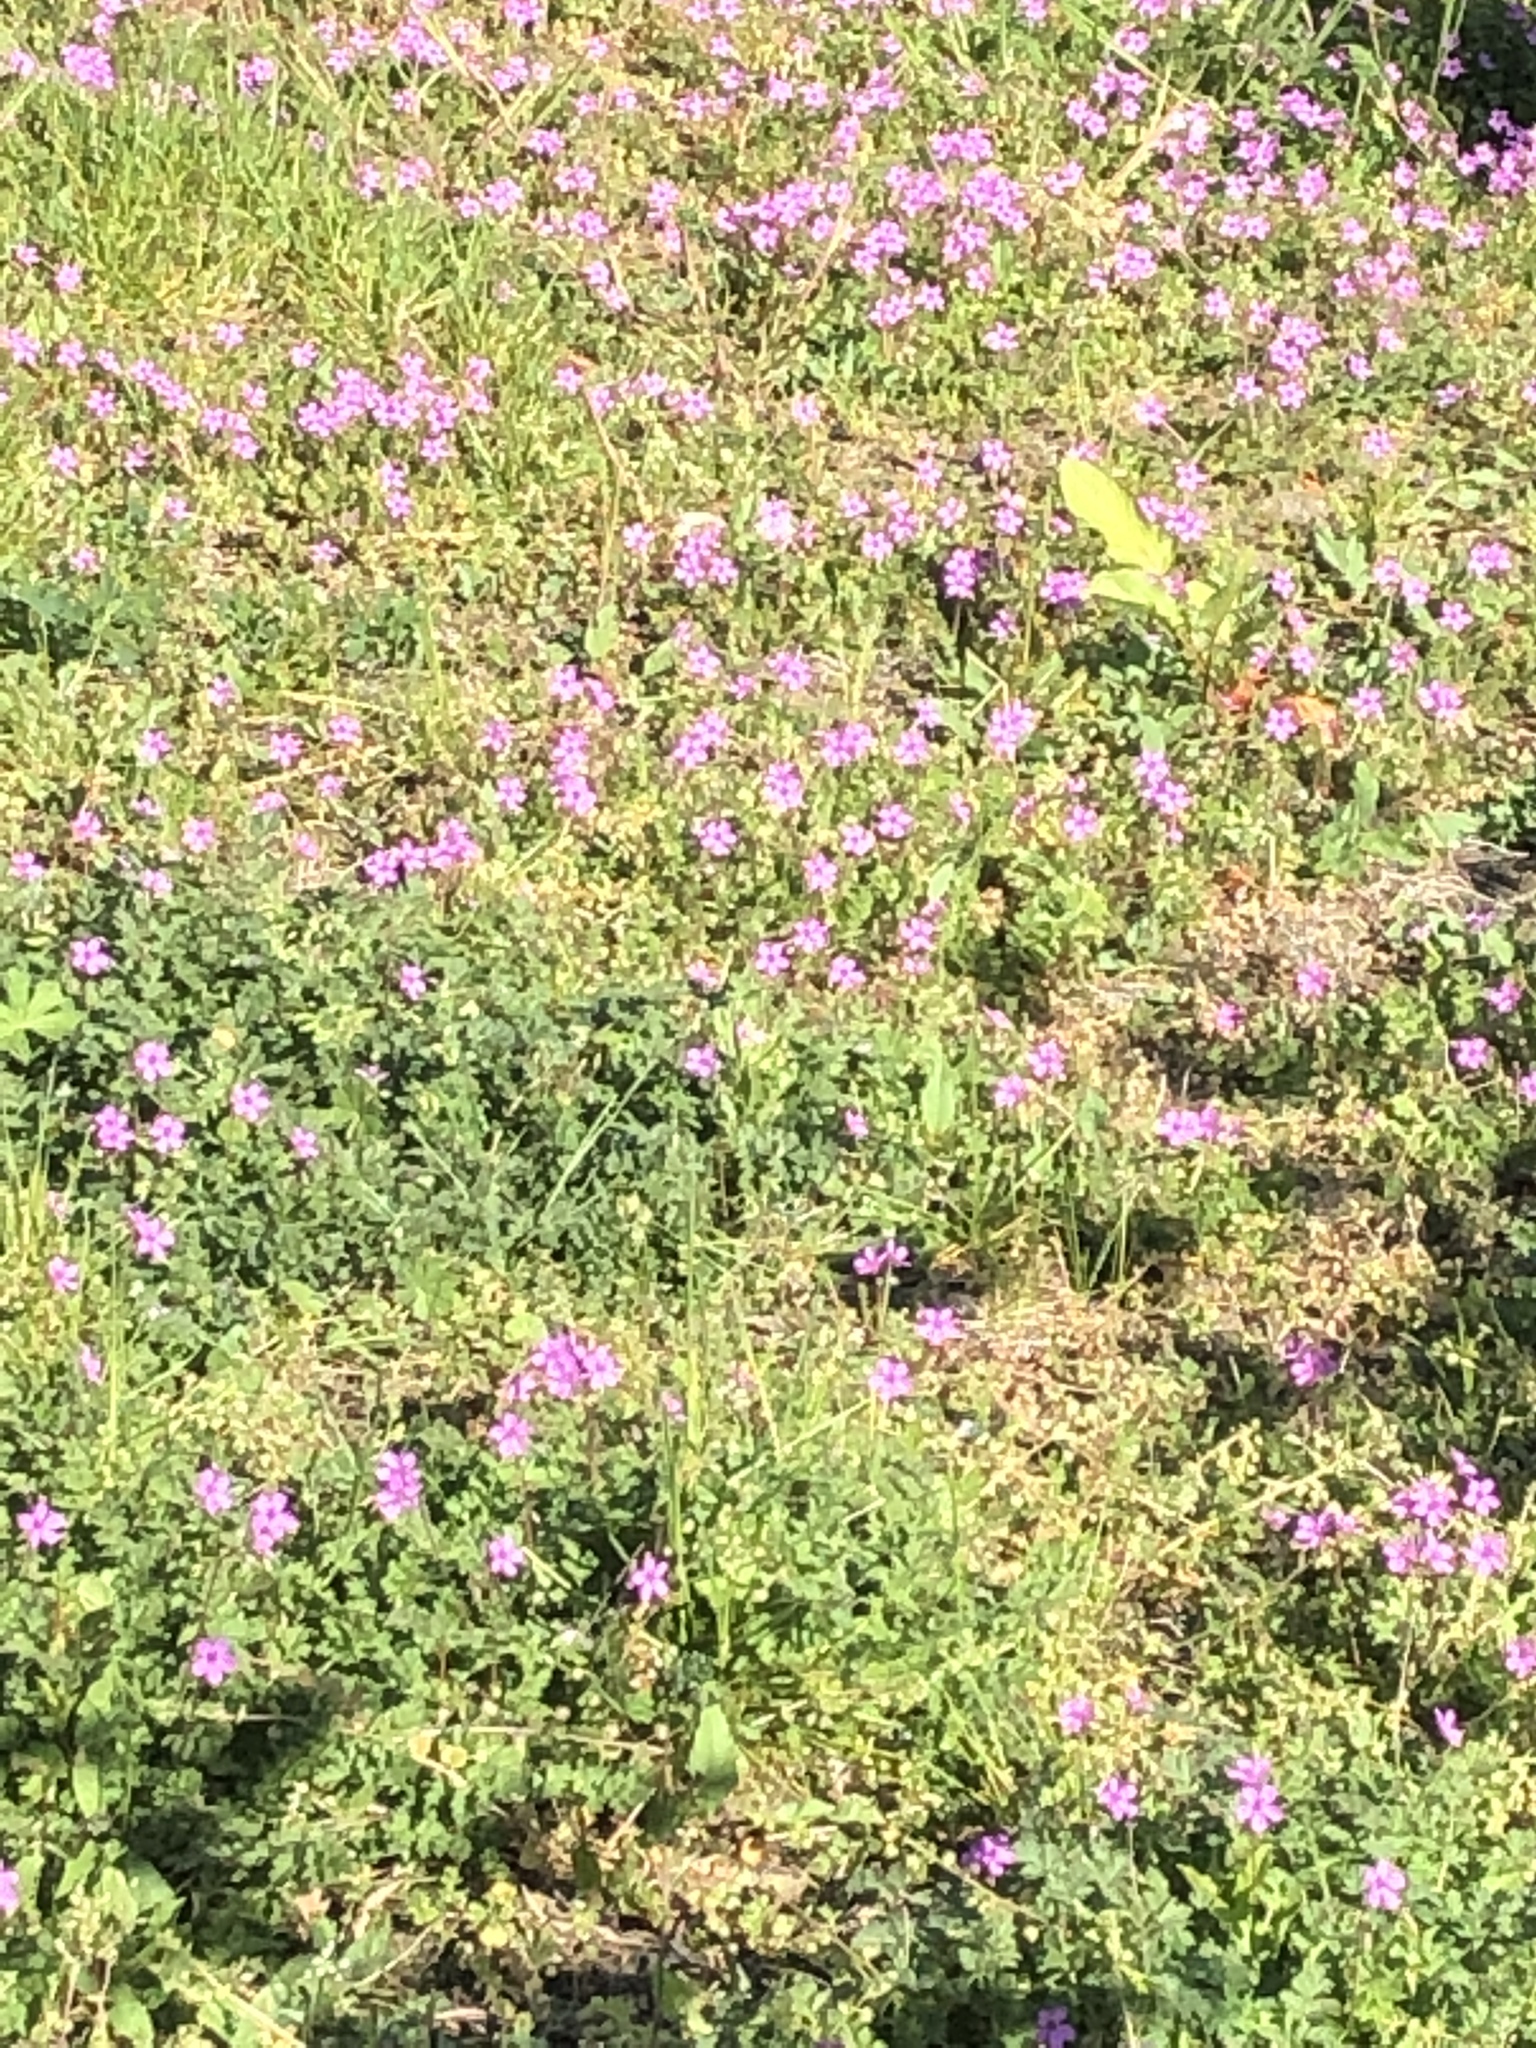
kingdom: Plantae
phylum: Tracheophyta
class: Magnoliopsida
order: Geraniales
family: Geraniaceae
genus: Erodium
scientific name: Erodium cicutarium
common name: Common stork's-bill
